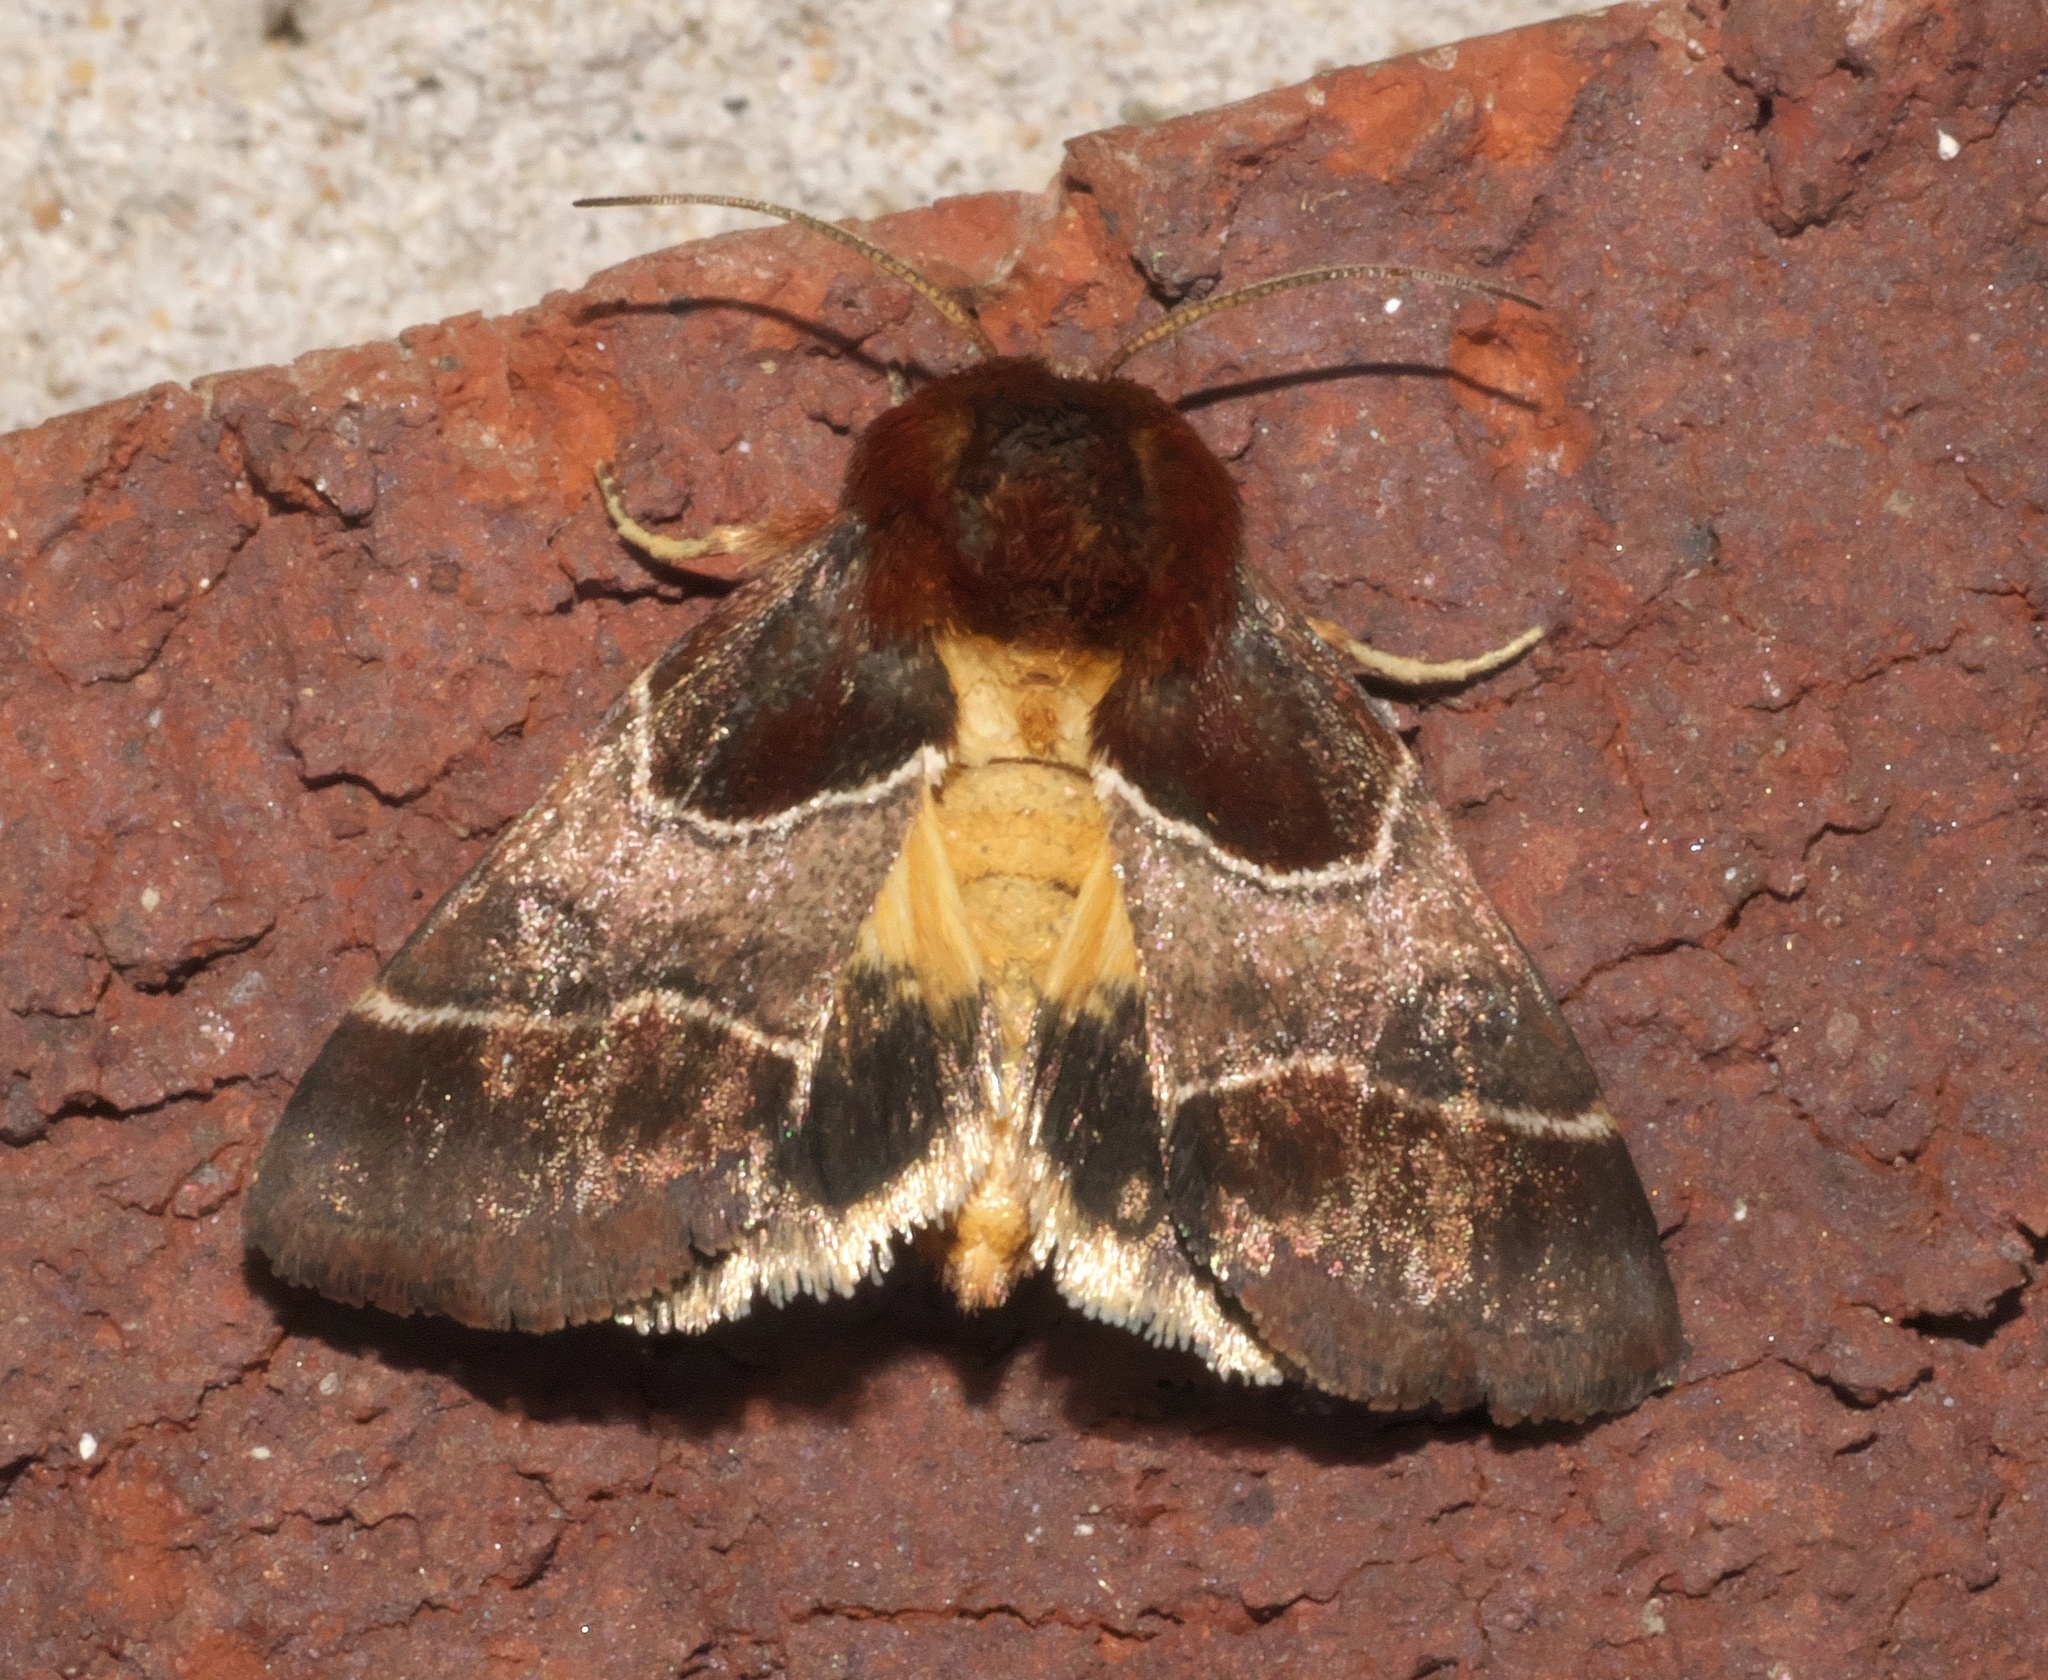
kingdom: Animalia
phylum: Arthropoda
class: Insecta
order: Lepidoptera
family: Noctuidae
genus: Schinia
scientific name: Schinia arcigera
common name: Arcigera flower moth
